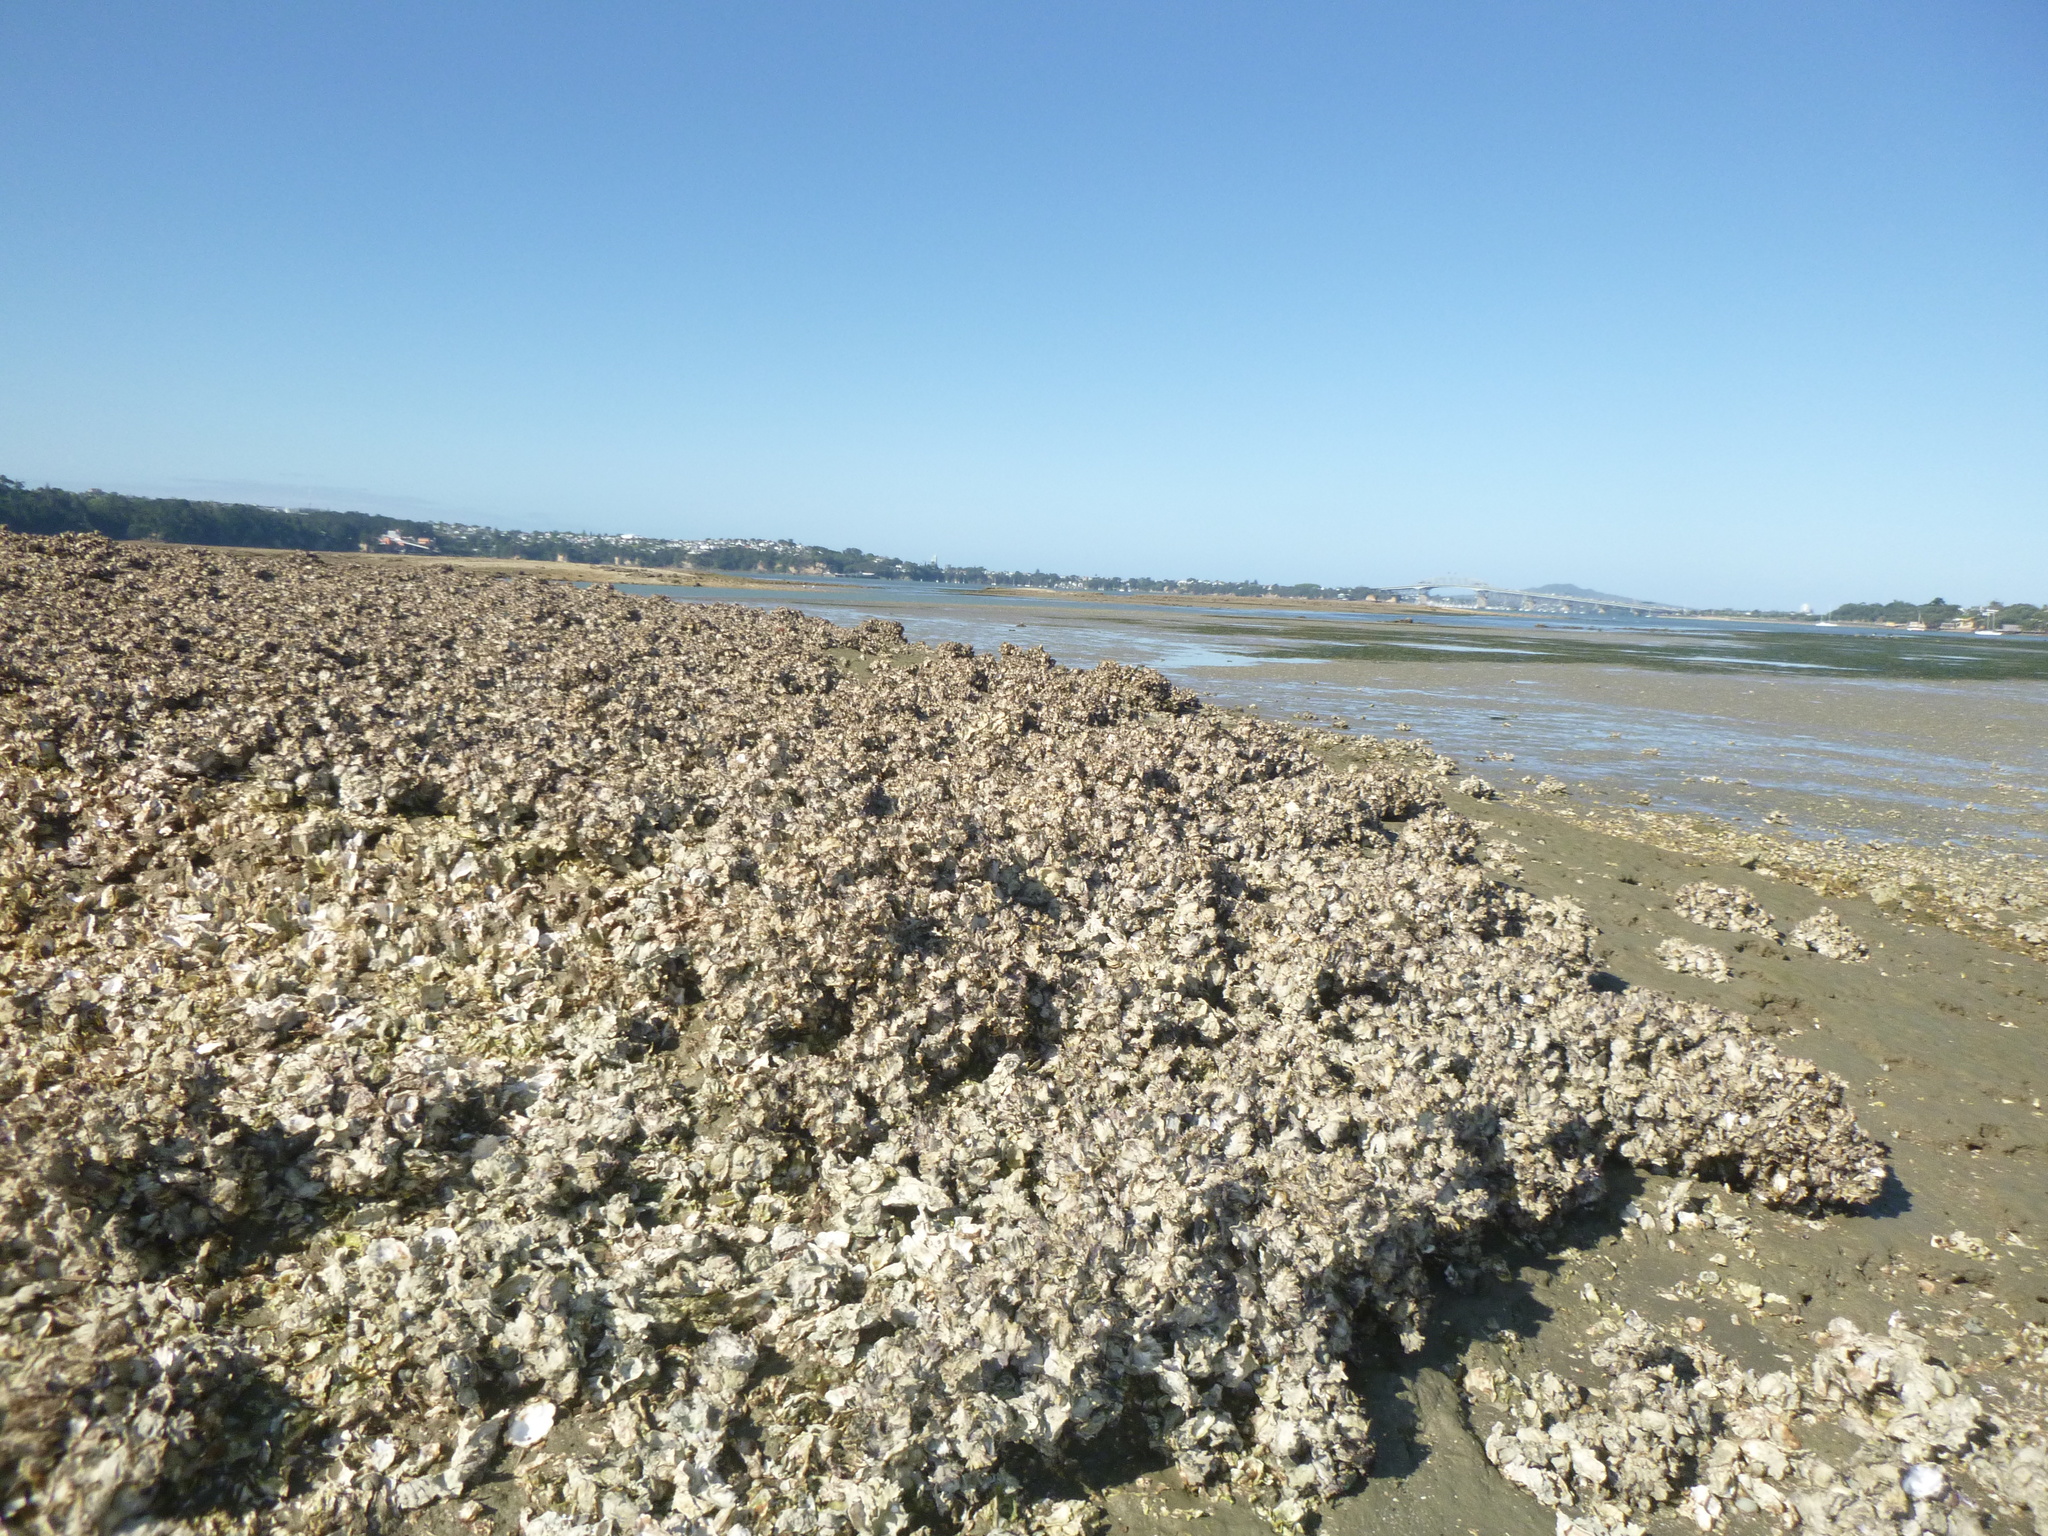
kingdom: Animalia
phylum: Mollusca
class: Bivalvia
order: Ostreida
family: Ostreidae
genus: Magallana
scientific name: Magallana gigas
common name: Pacific oyster
